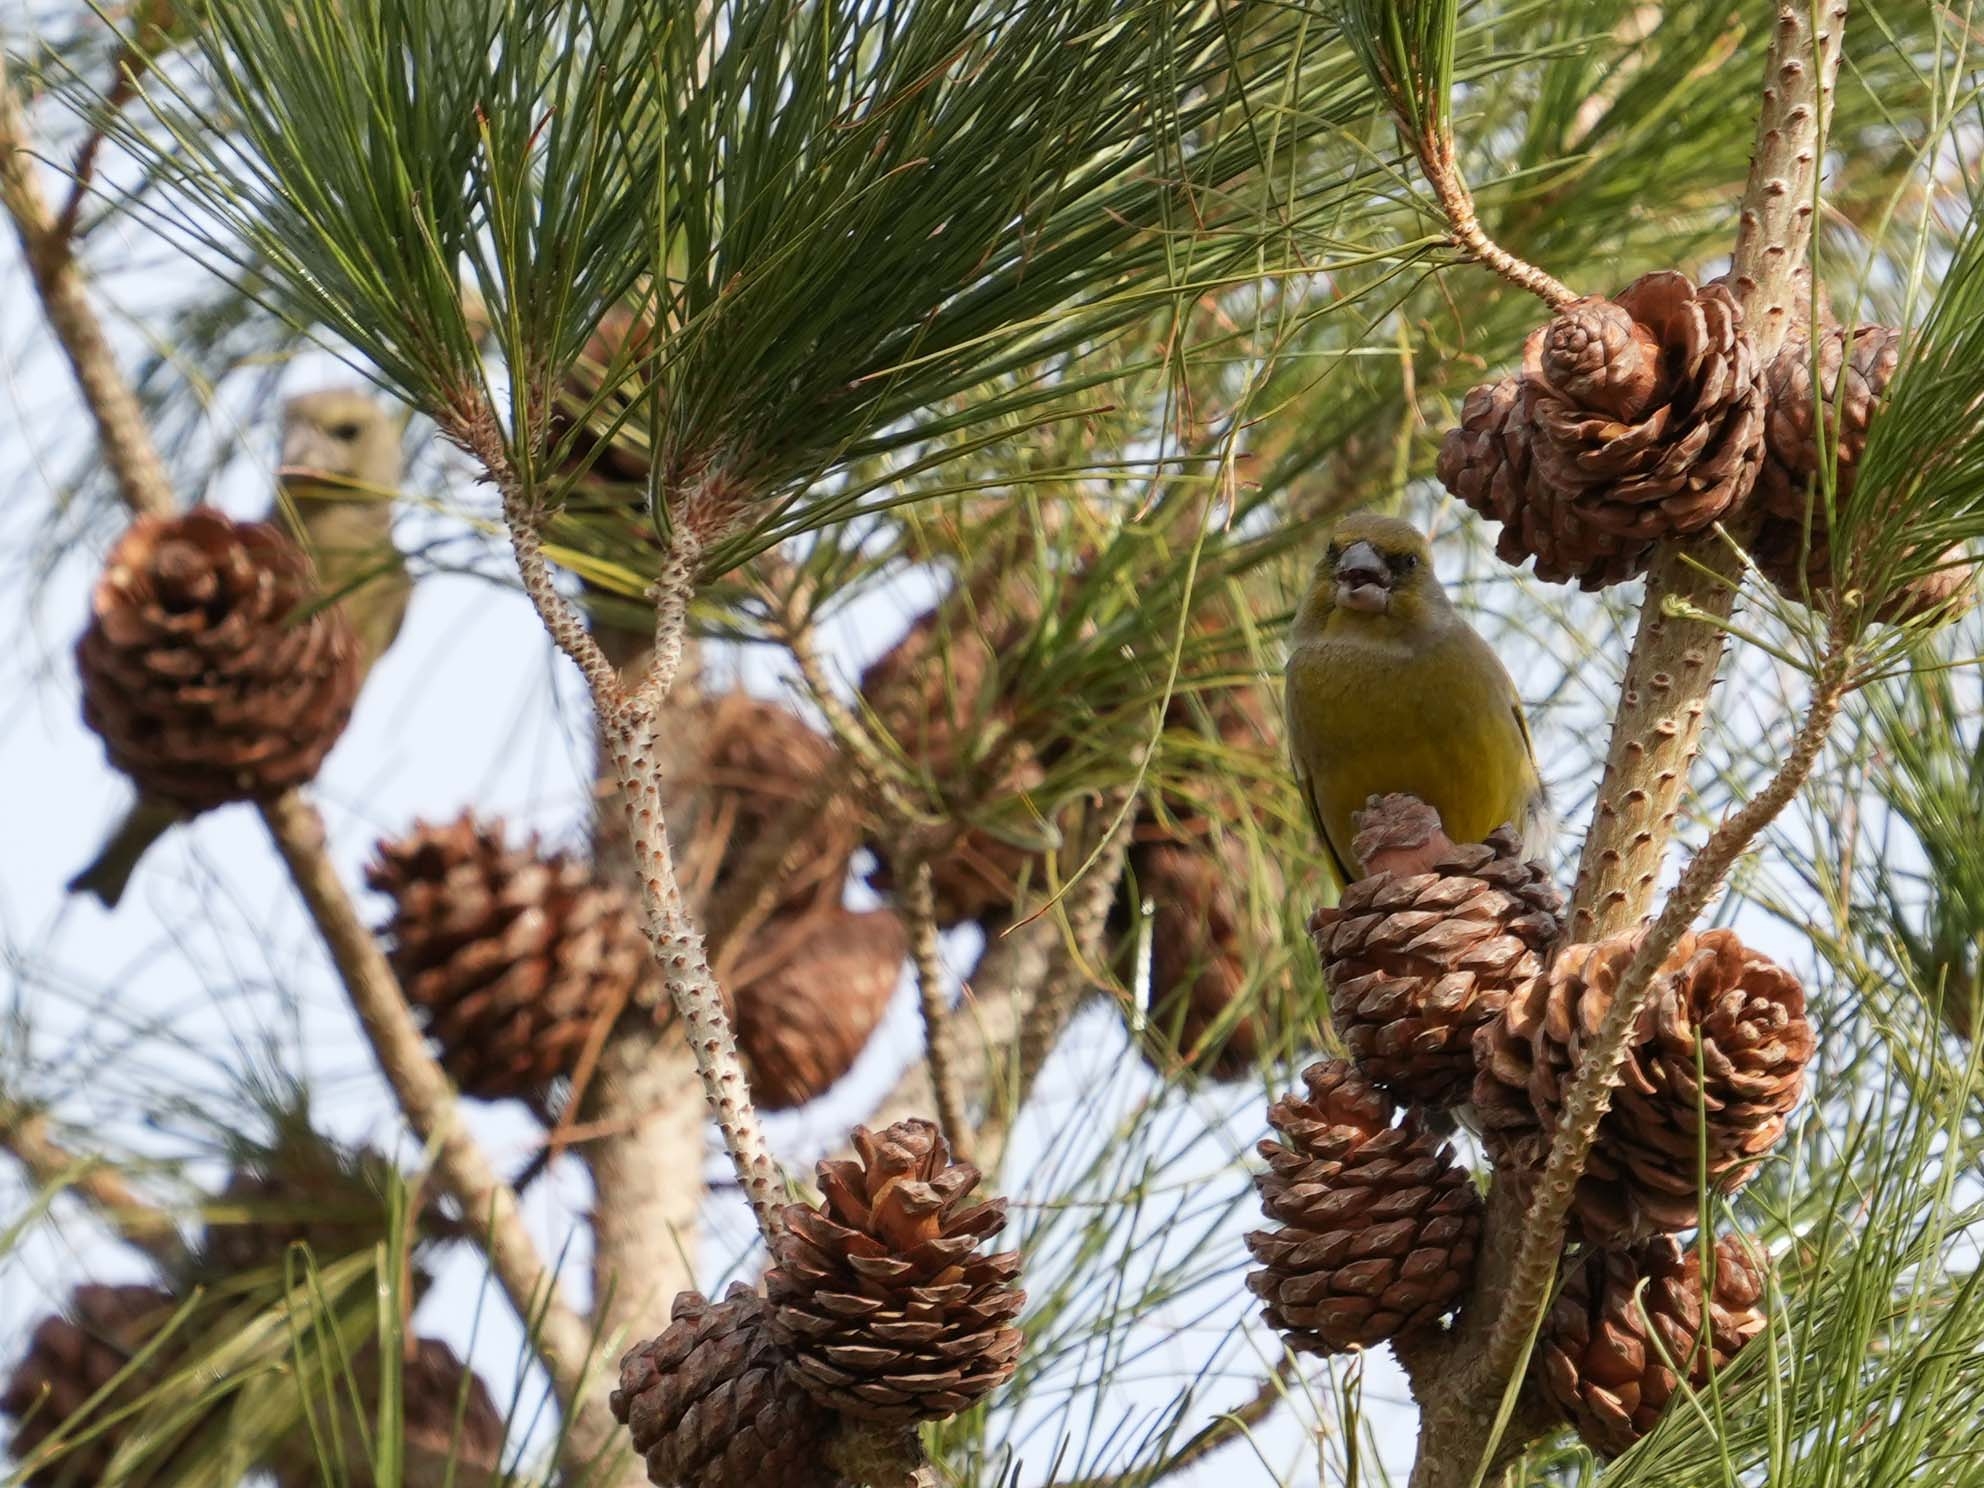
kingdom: Plantae
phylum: Tracheophyta
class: Liliopsida
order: Poales
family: Poaceae
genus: Chloris
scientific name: Chloris chloris
